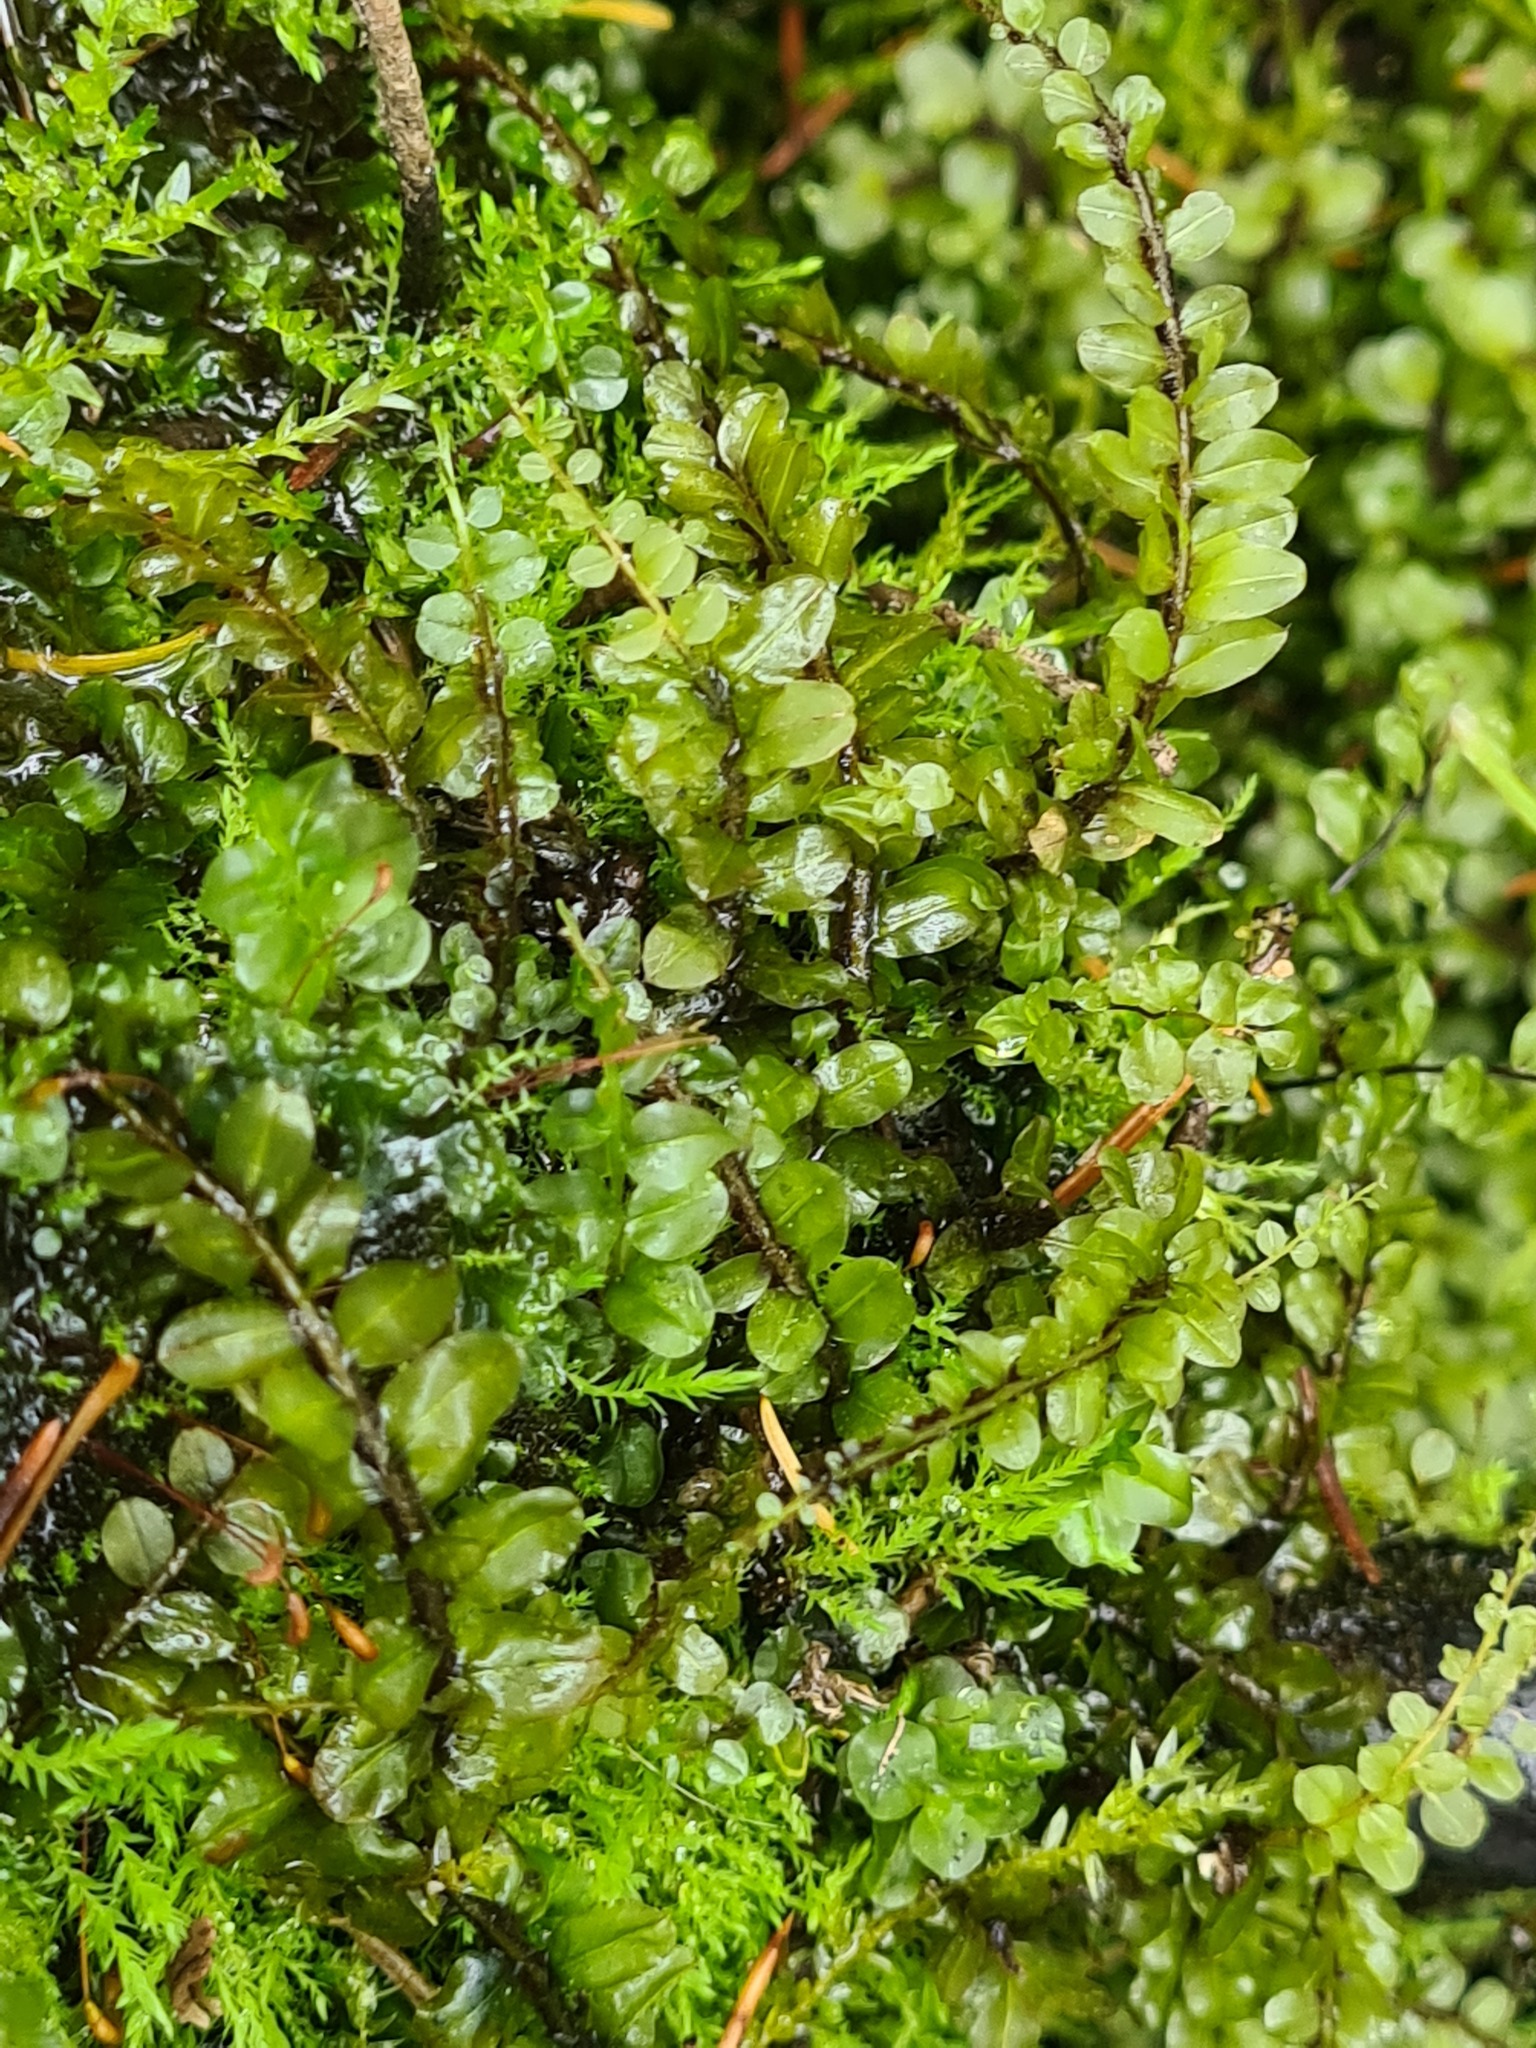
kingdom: Plantae
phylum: Bryophyta
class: Bryopsida
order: Bryales
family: Mniaceae
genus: Pseudobryum
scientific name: Pseudobryum cinclidioides
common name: River thyme moss
